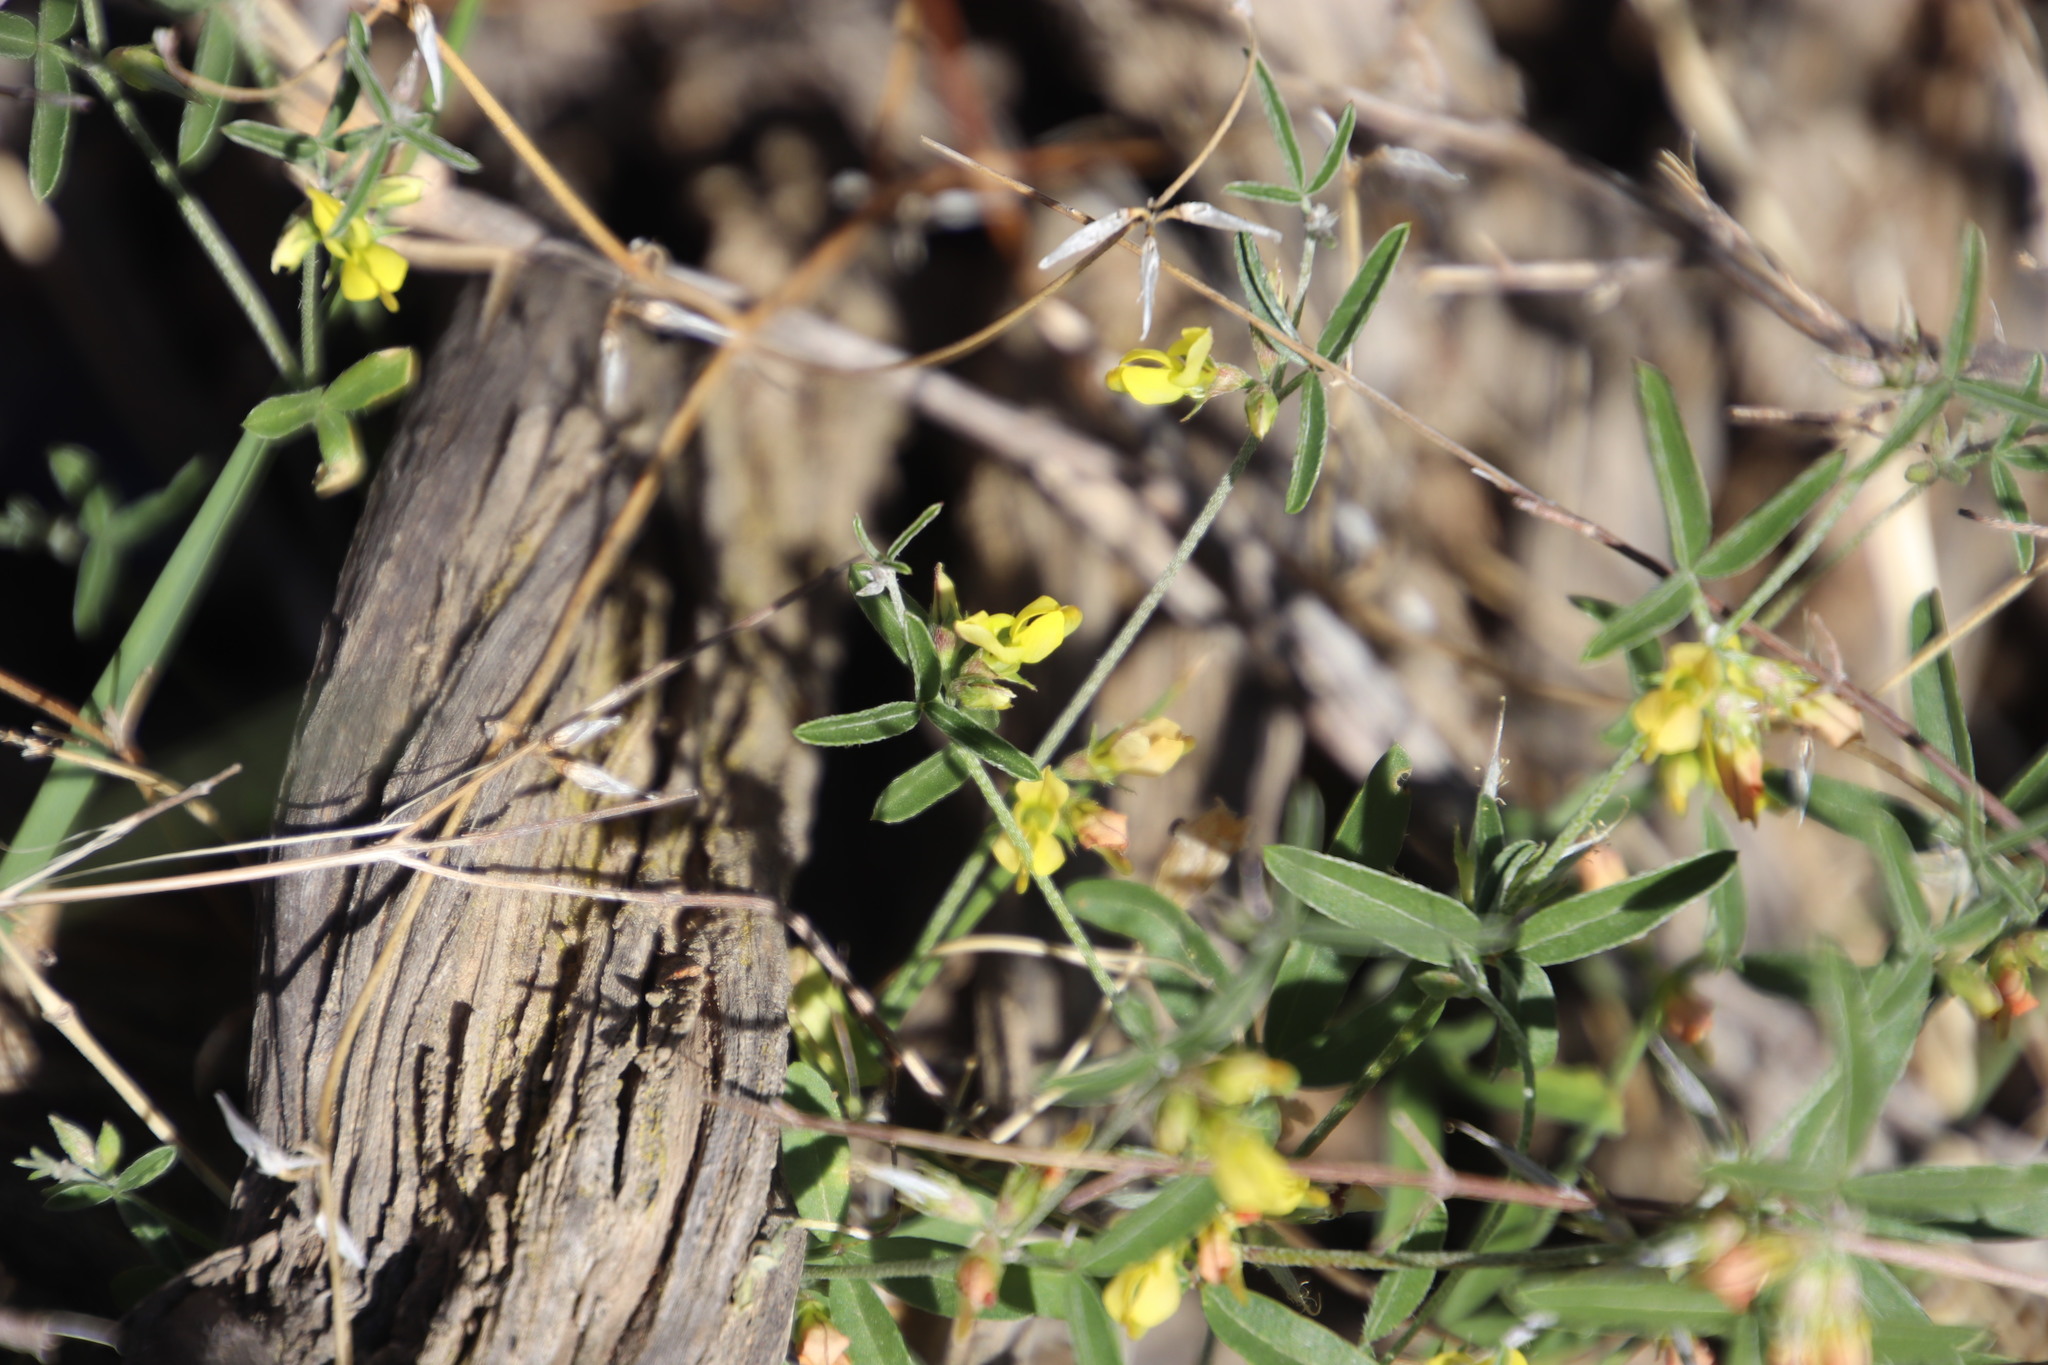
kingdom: Plantae
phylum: Tracheophyta
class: Magnoliopsida
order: Fabales
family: Fabaceae
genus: Lotononis
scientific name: Lotononis falcata
